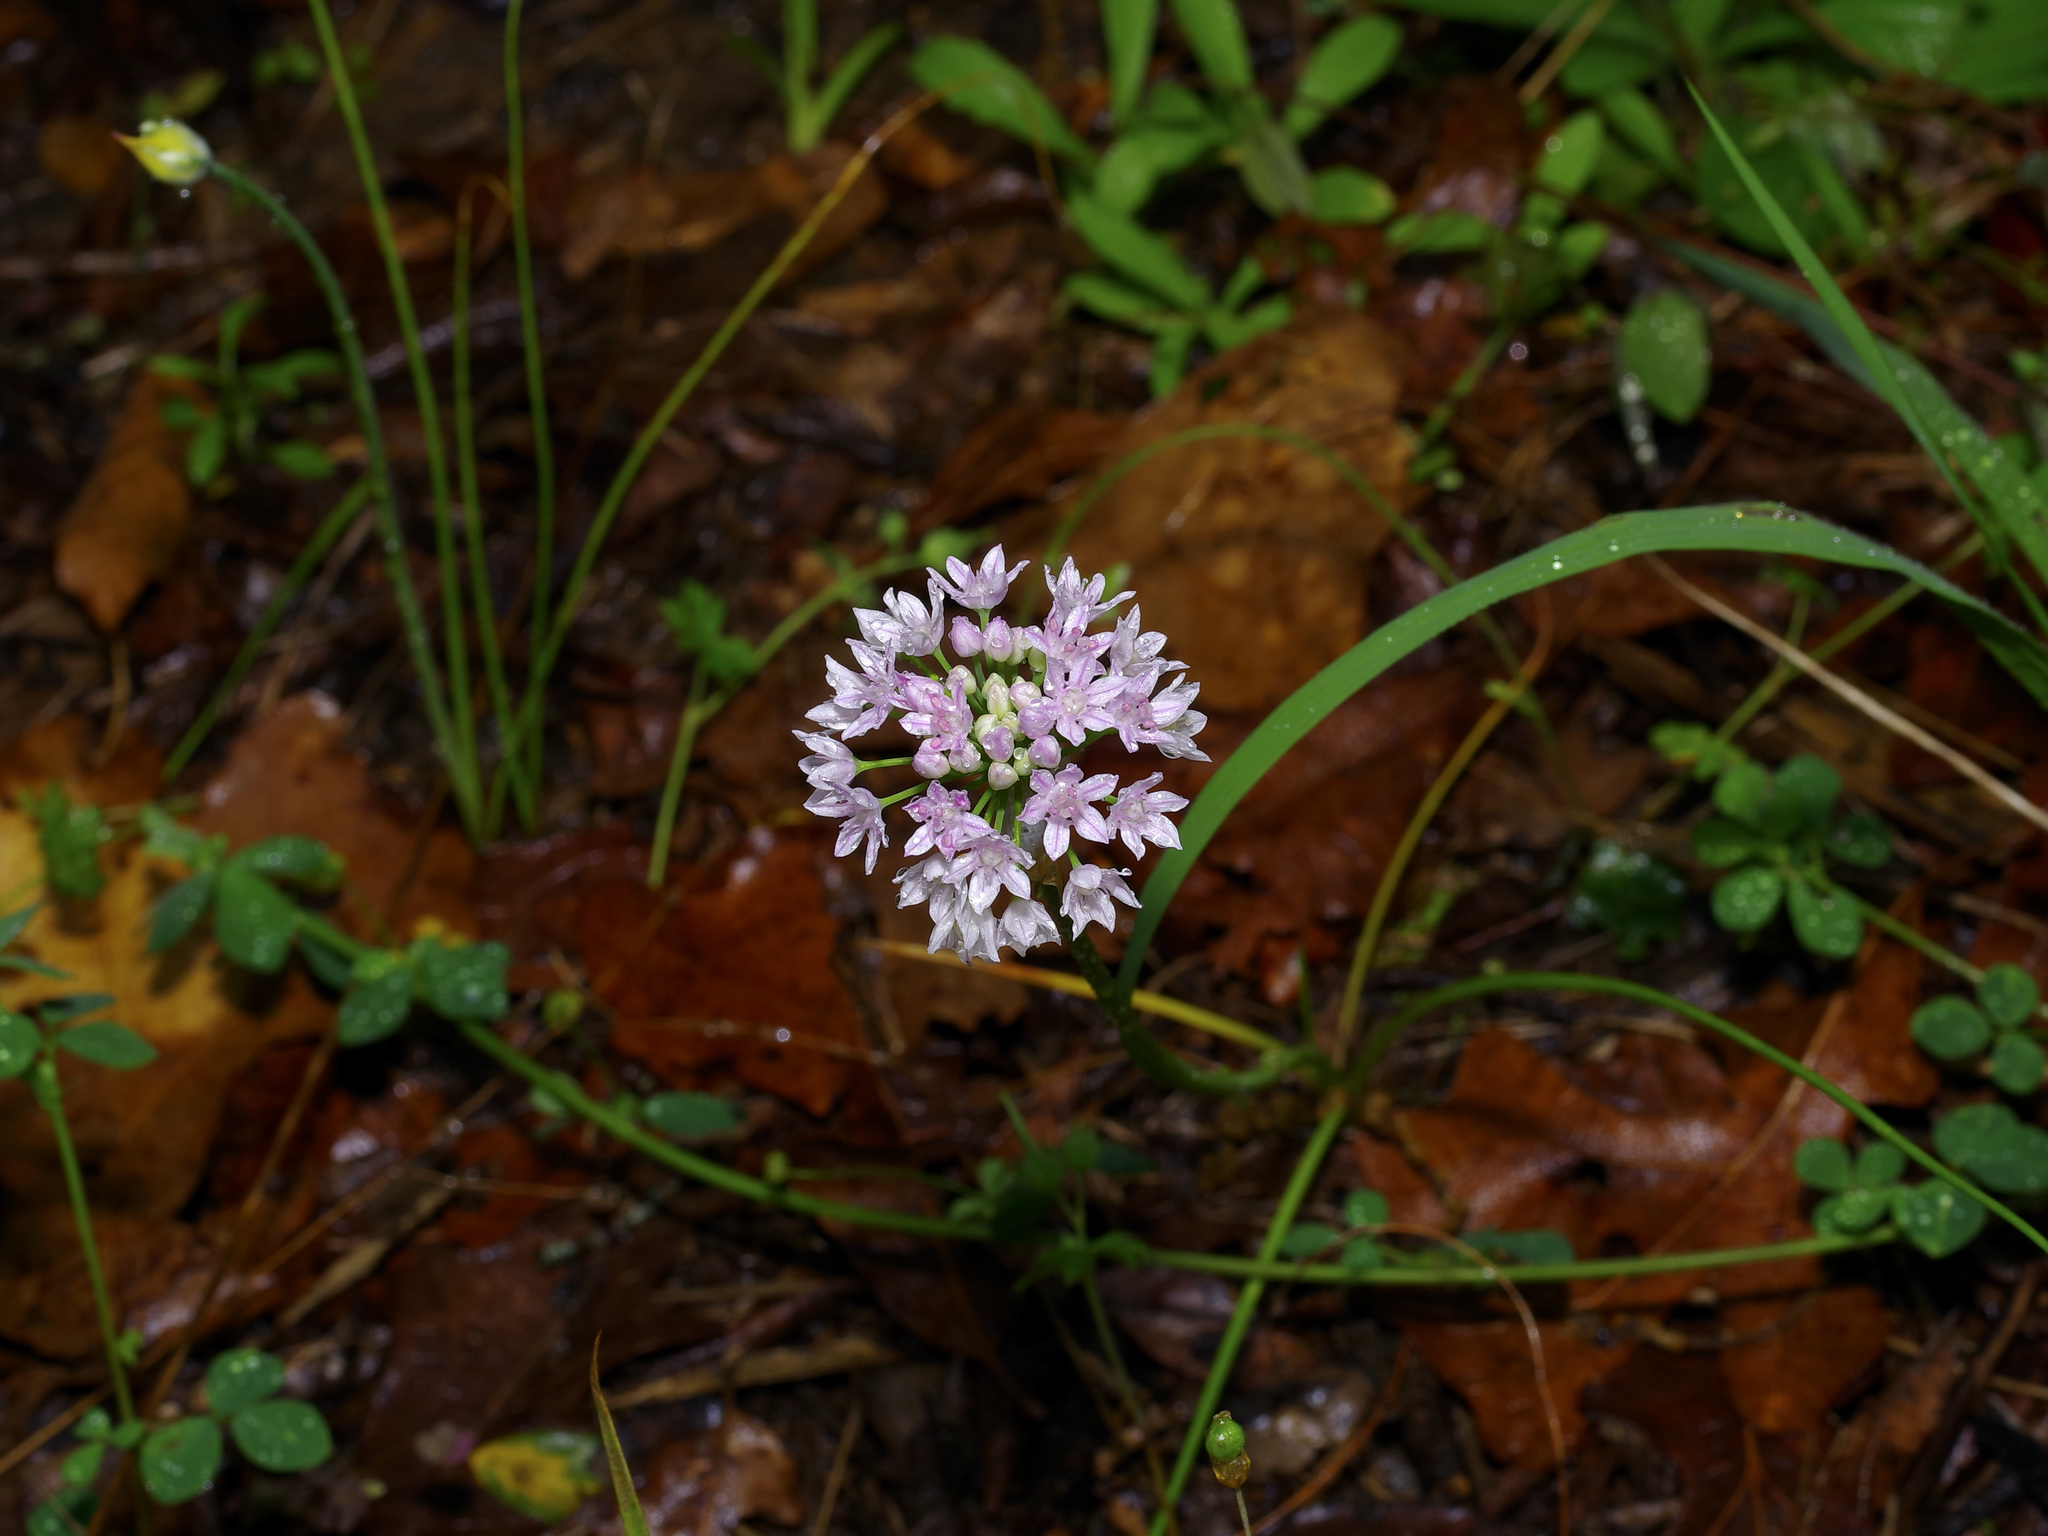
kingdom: Plantae
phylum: Tracheophyta
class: Liliopsida
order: Asparagales
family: Amaryllidaceae
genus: Allium
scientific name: Allium drummondii
